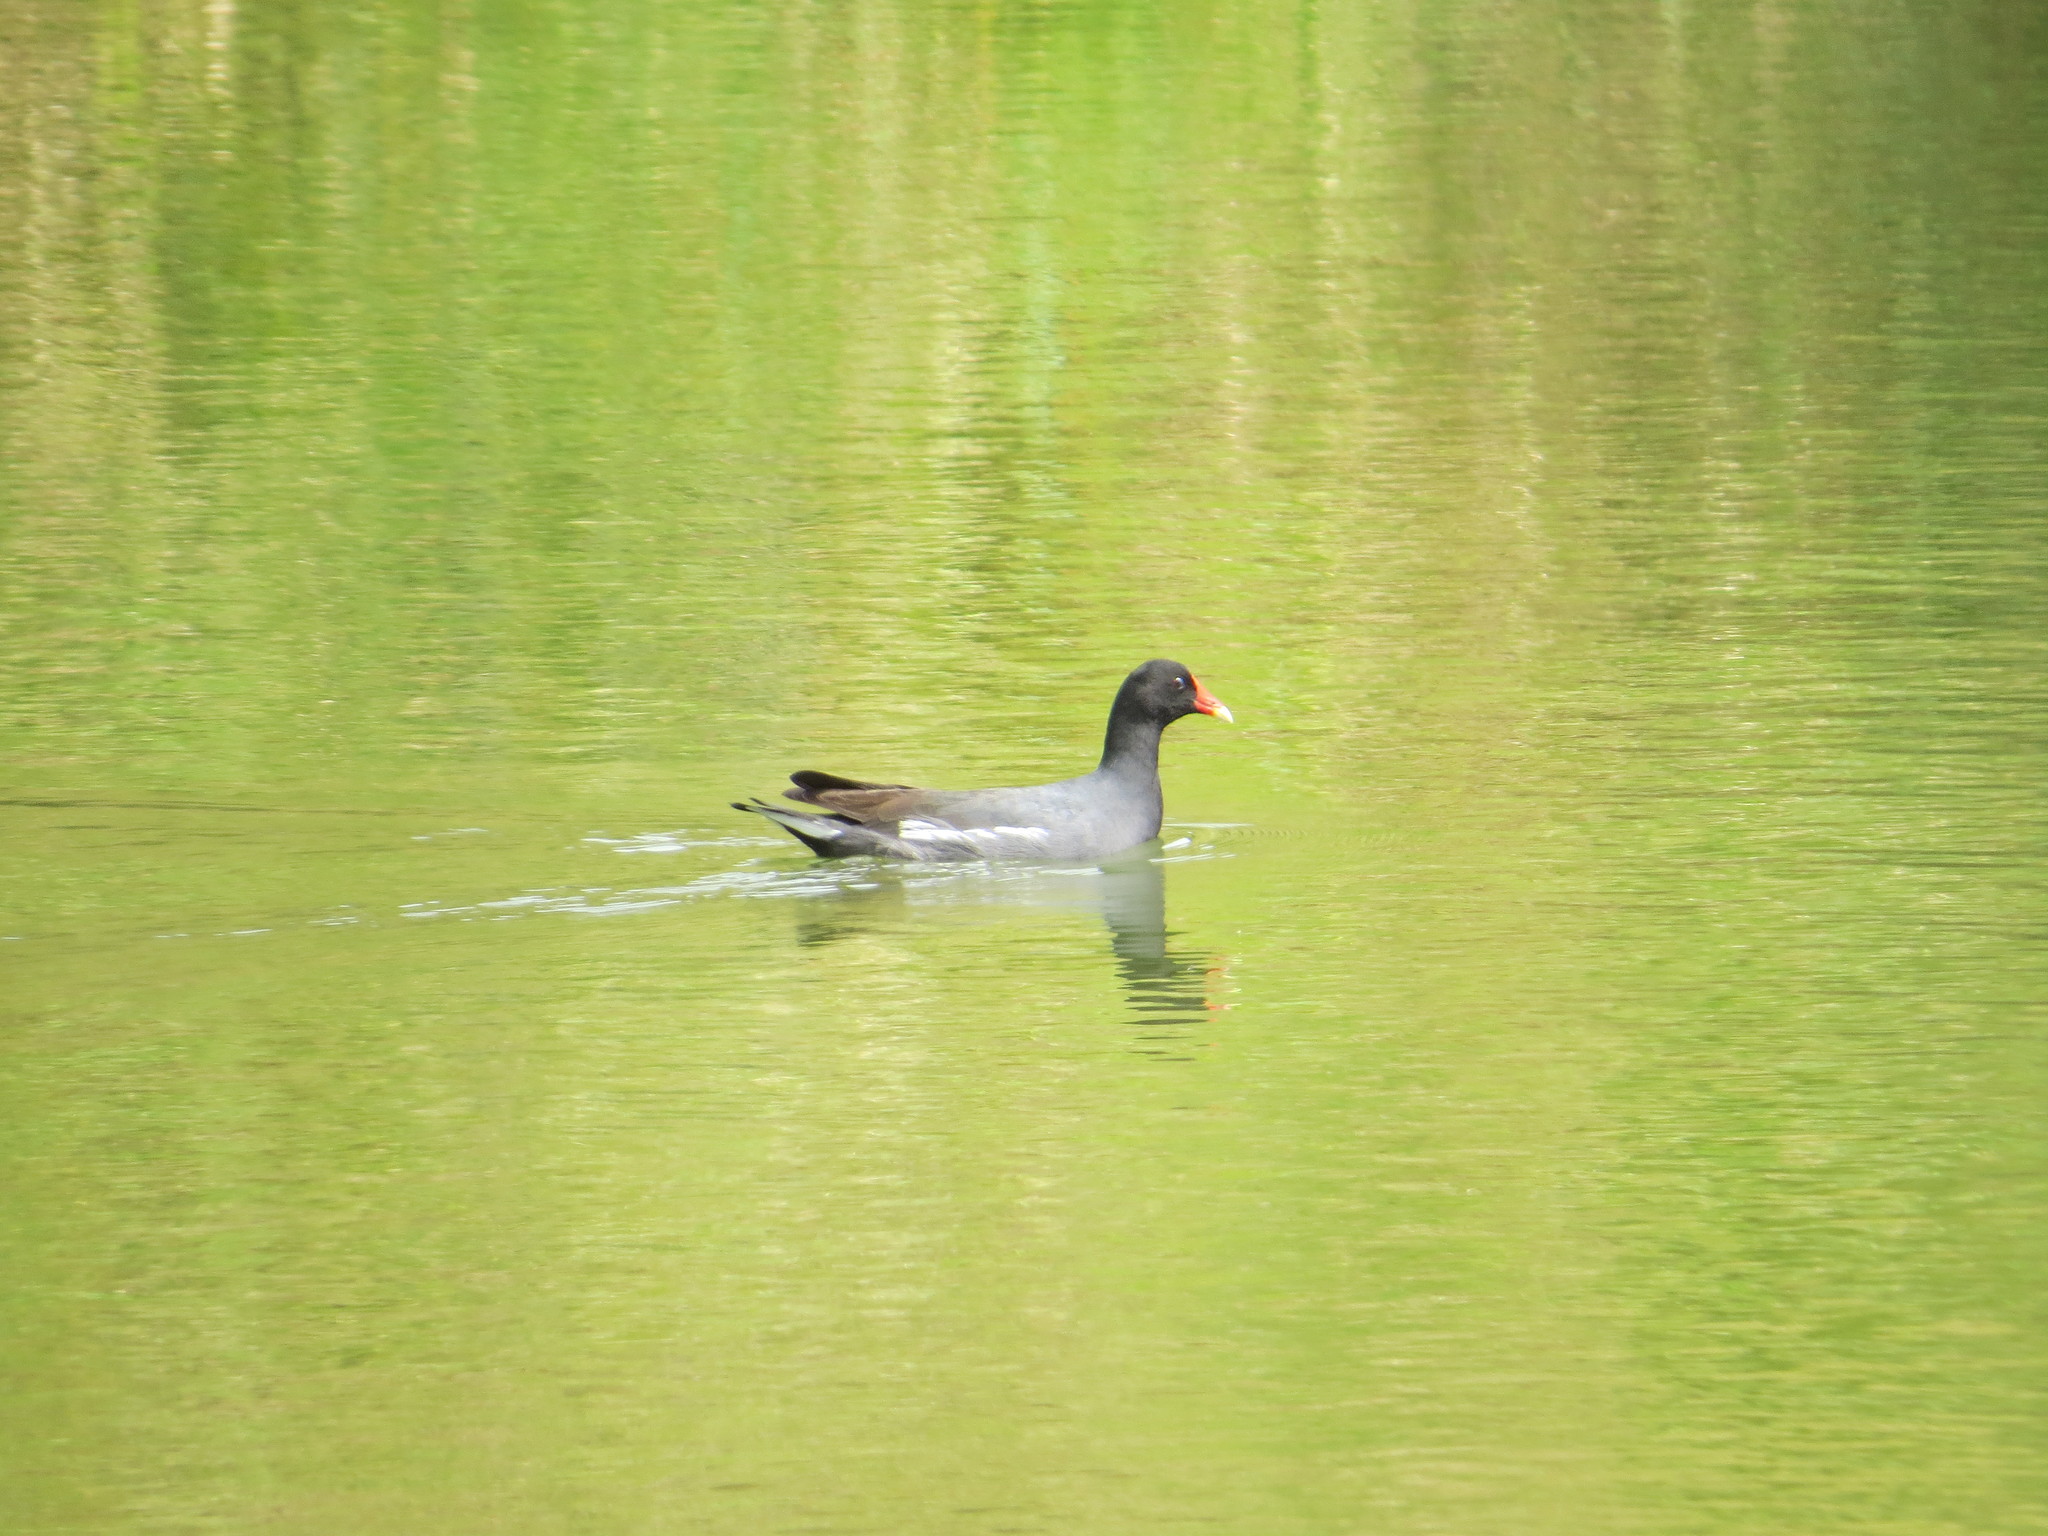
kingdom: Animalia
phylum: Chordata
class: Aves
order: Gruiformes
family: Rallidae
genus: Gallinula
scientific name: Gallinula chloropus
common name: Common moorhen
